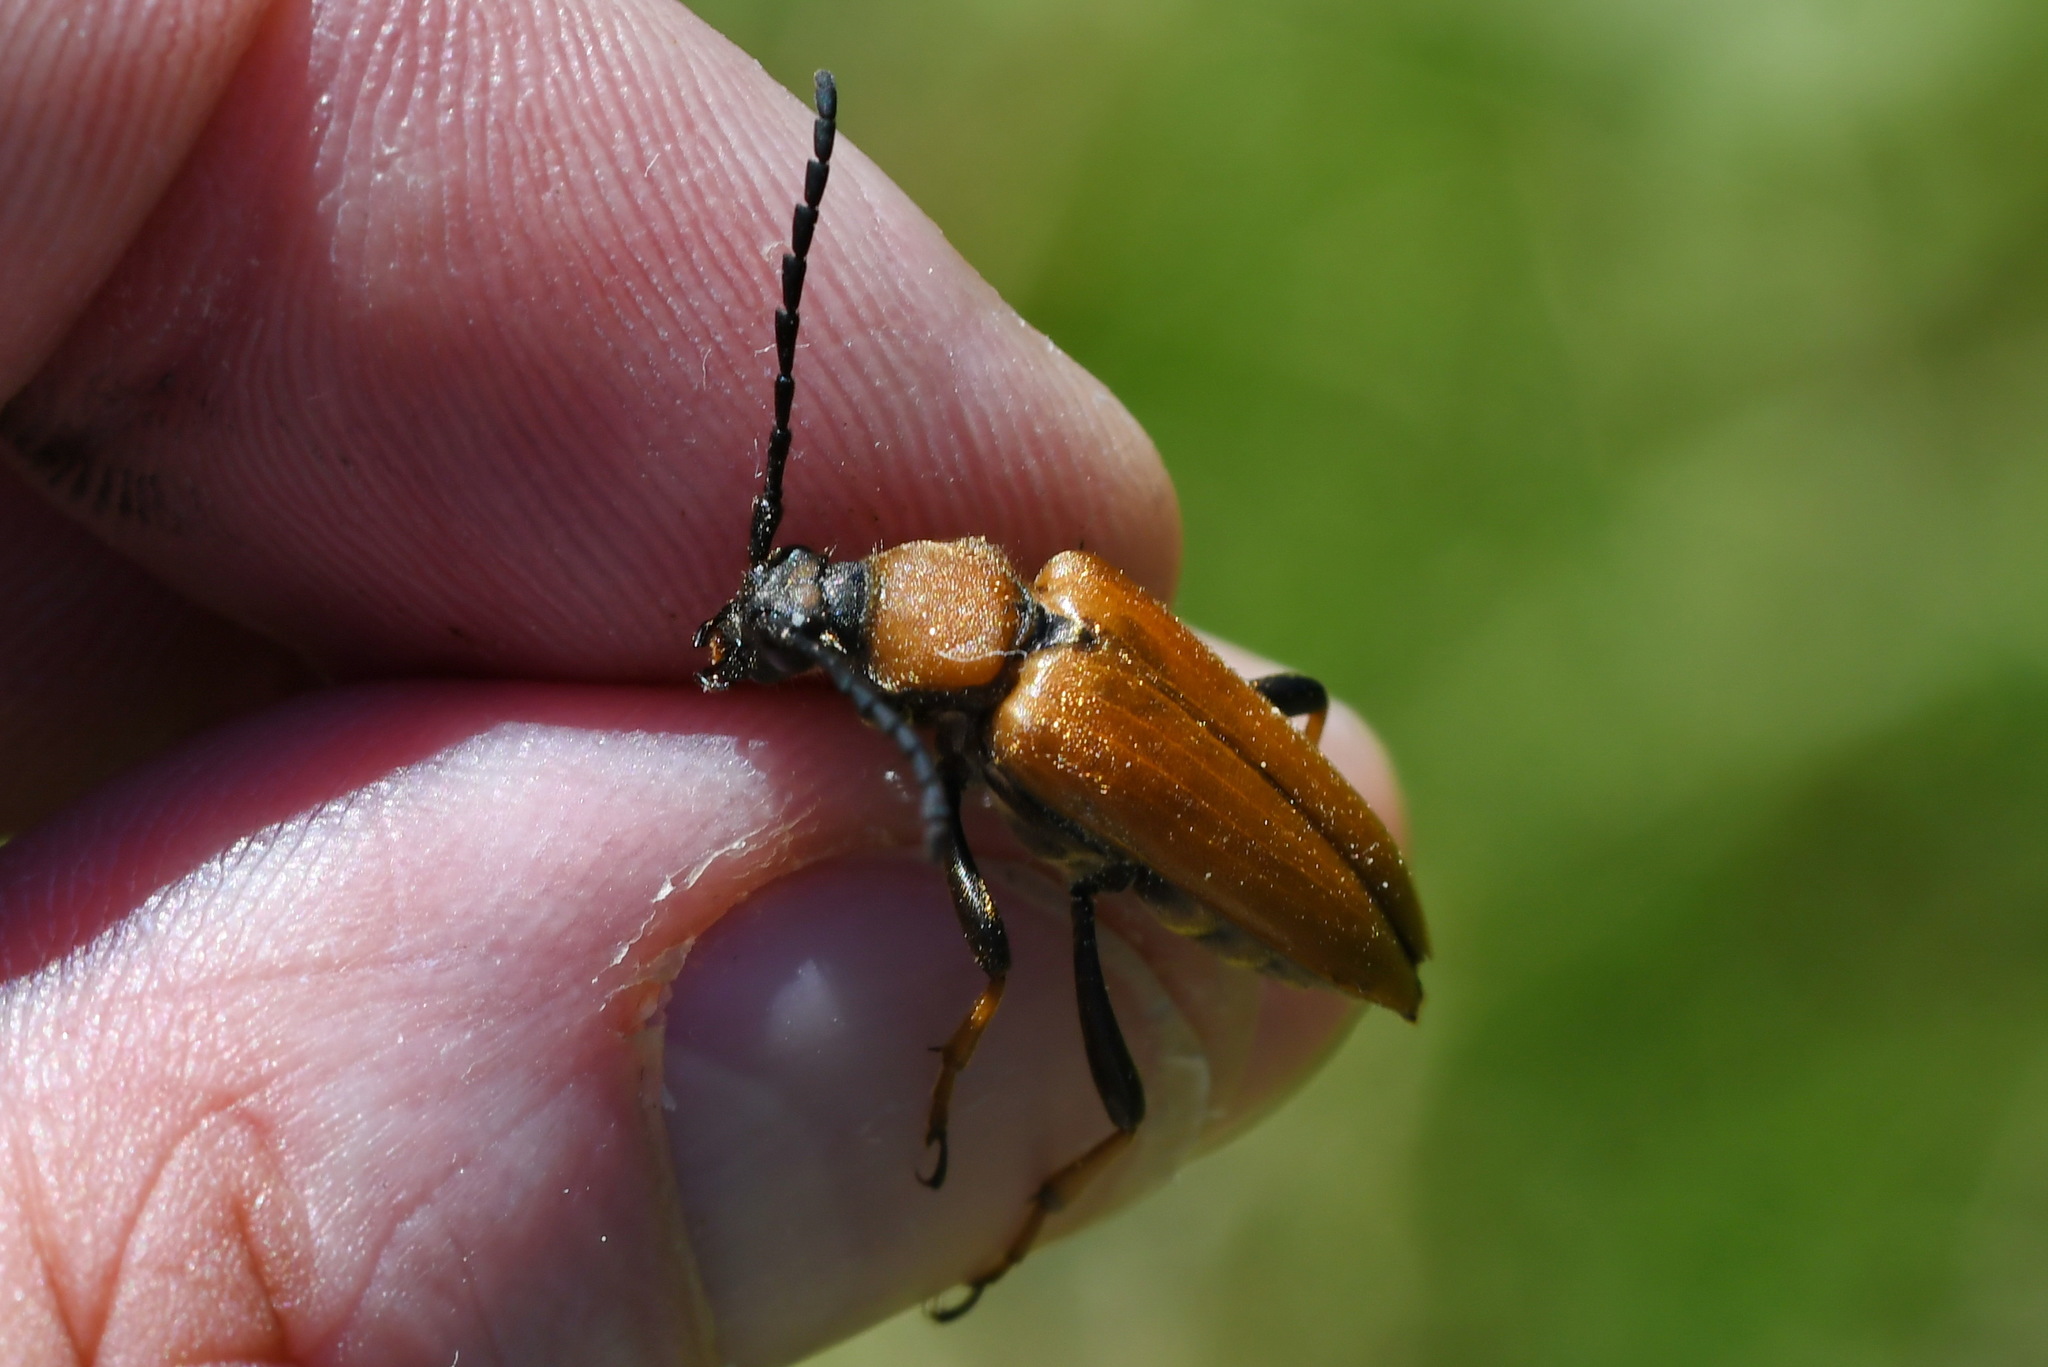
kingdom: Animalia
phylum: Arthropoda
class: Insecta
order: Coleoptera
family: Cerambycidae
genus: Stictoleptura
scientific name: Stictoleptura rubra
